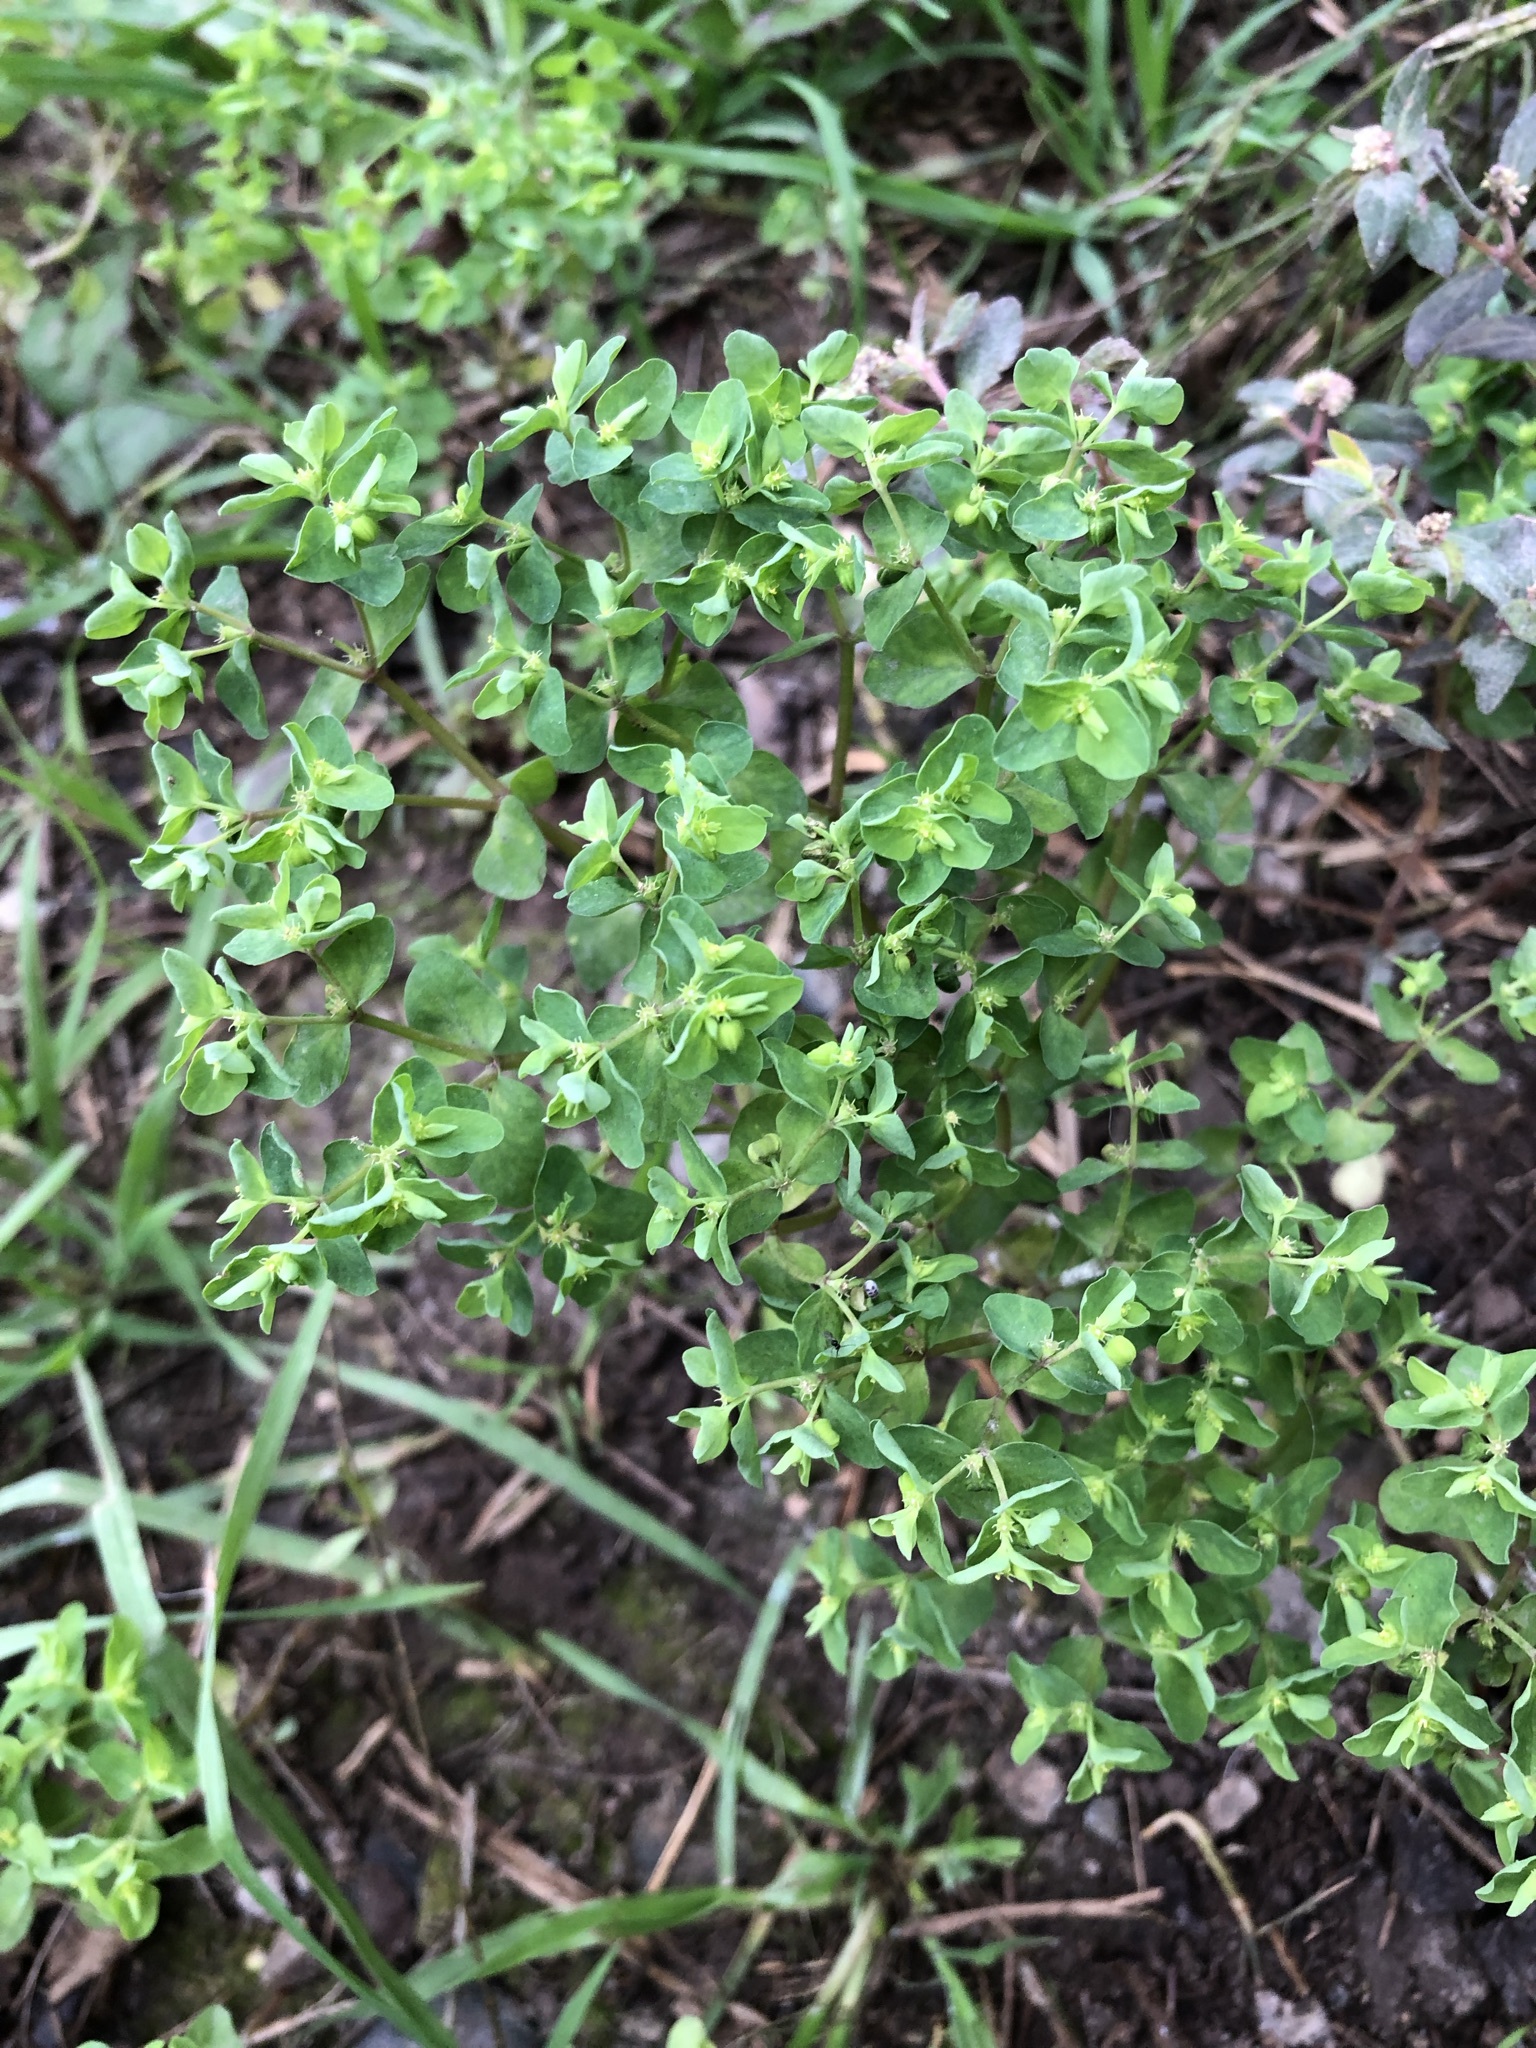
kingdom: Plantae
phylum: Tracheophyta
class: Magnoliopsida
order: Malpighiales
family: Euphorbiaceae
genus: Euphorbia
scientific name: Euphorbia peplus
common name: Petty spurge
